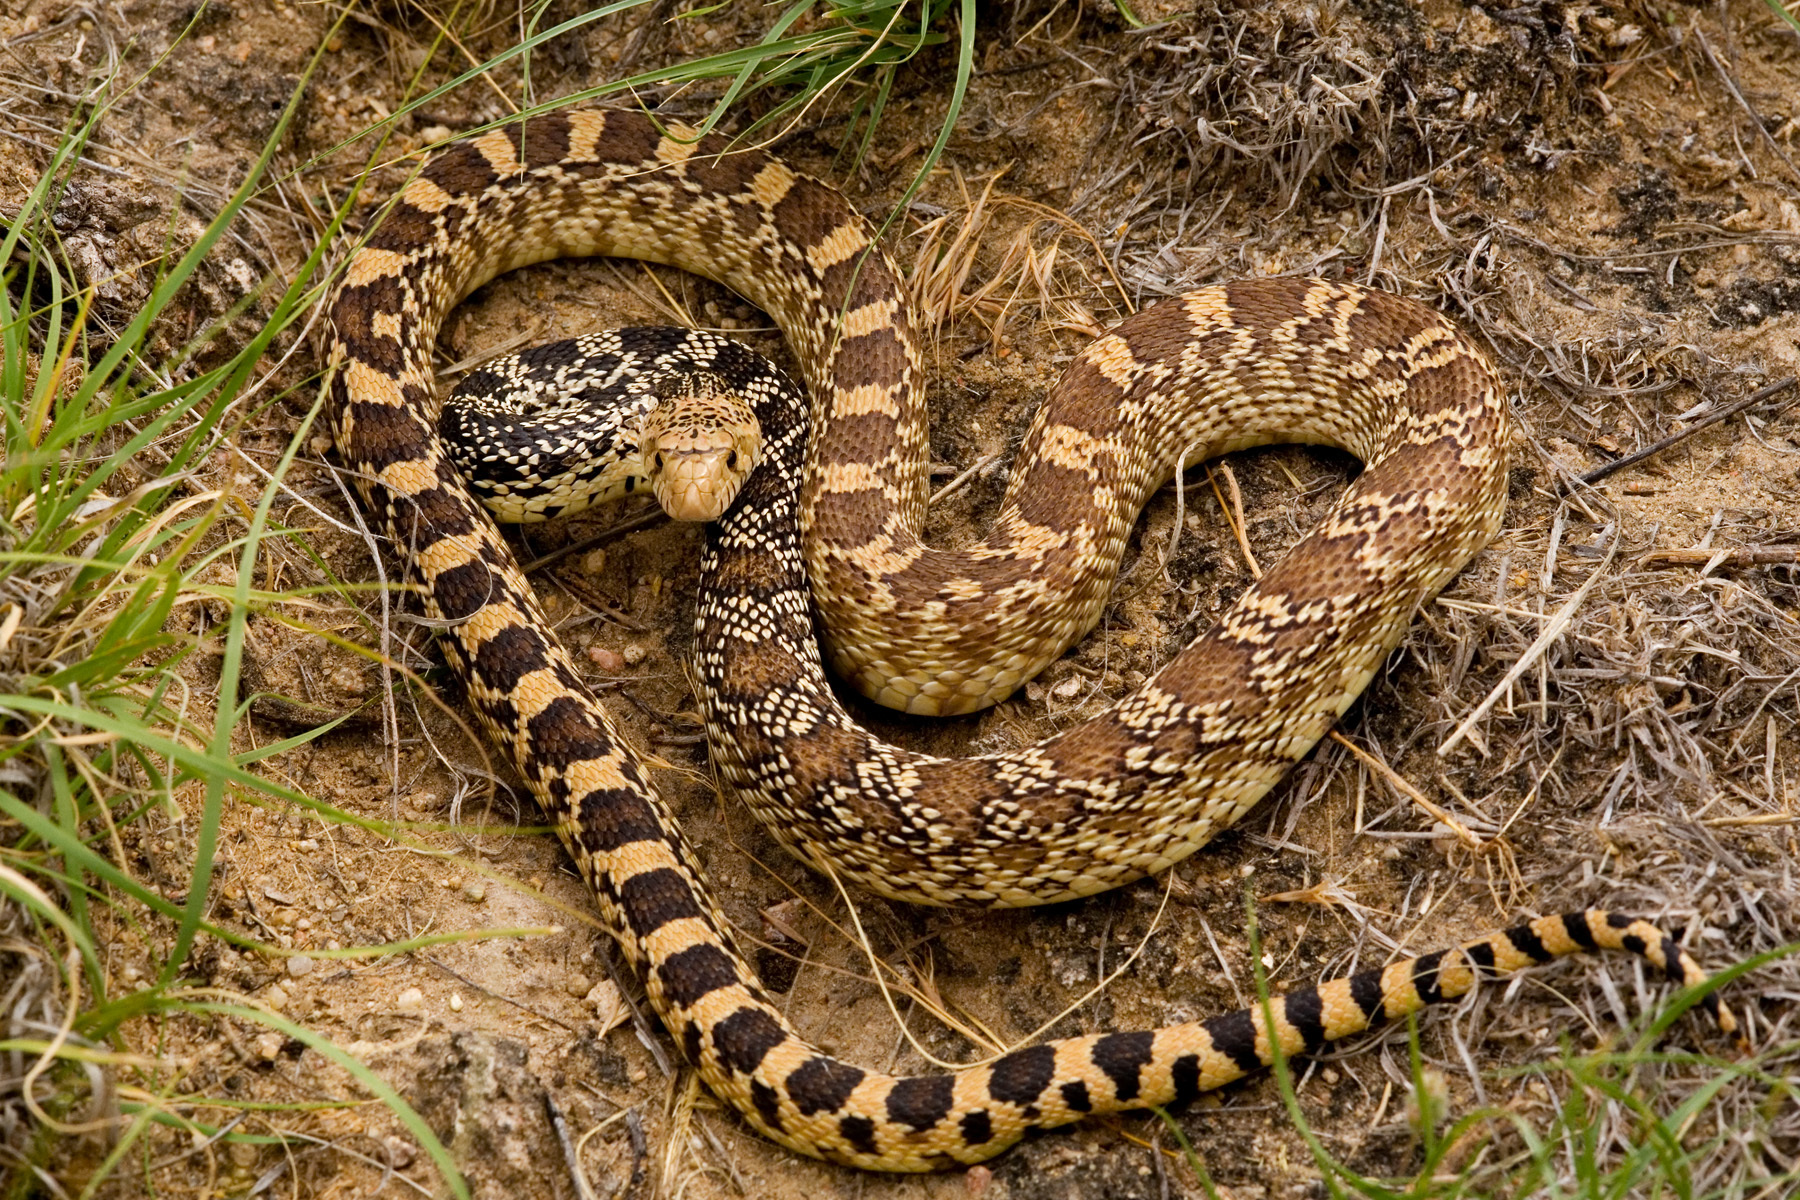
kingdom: Animalia
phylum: Chordata
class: Squamata
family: Colubridae
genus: Pituophis
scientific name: Pituophis catenifer
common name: Gopher snake
